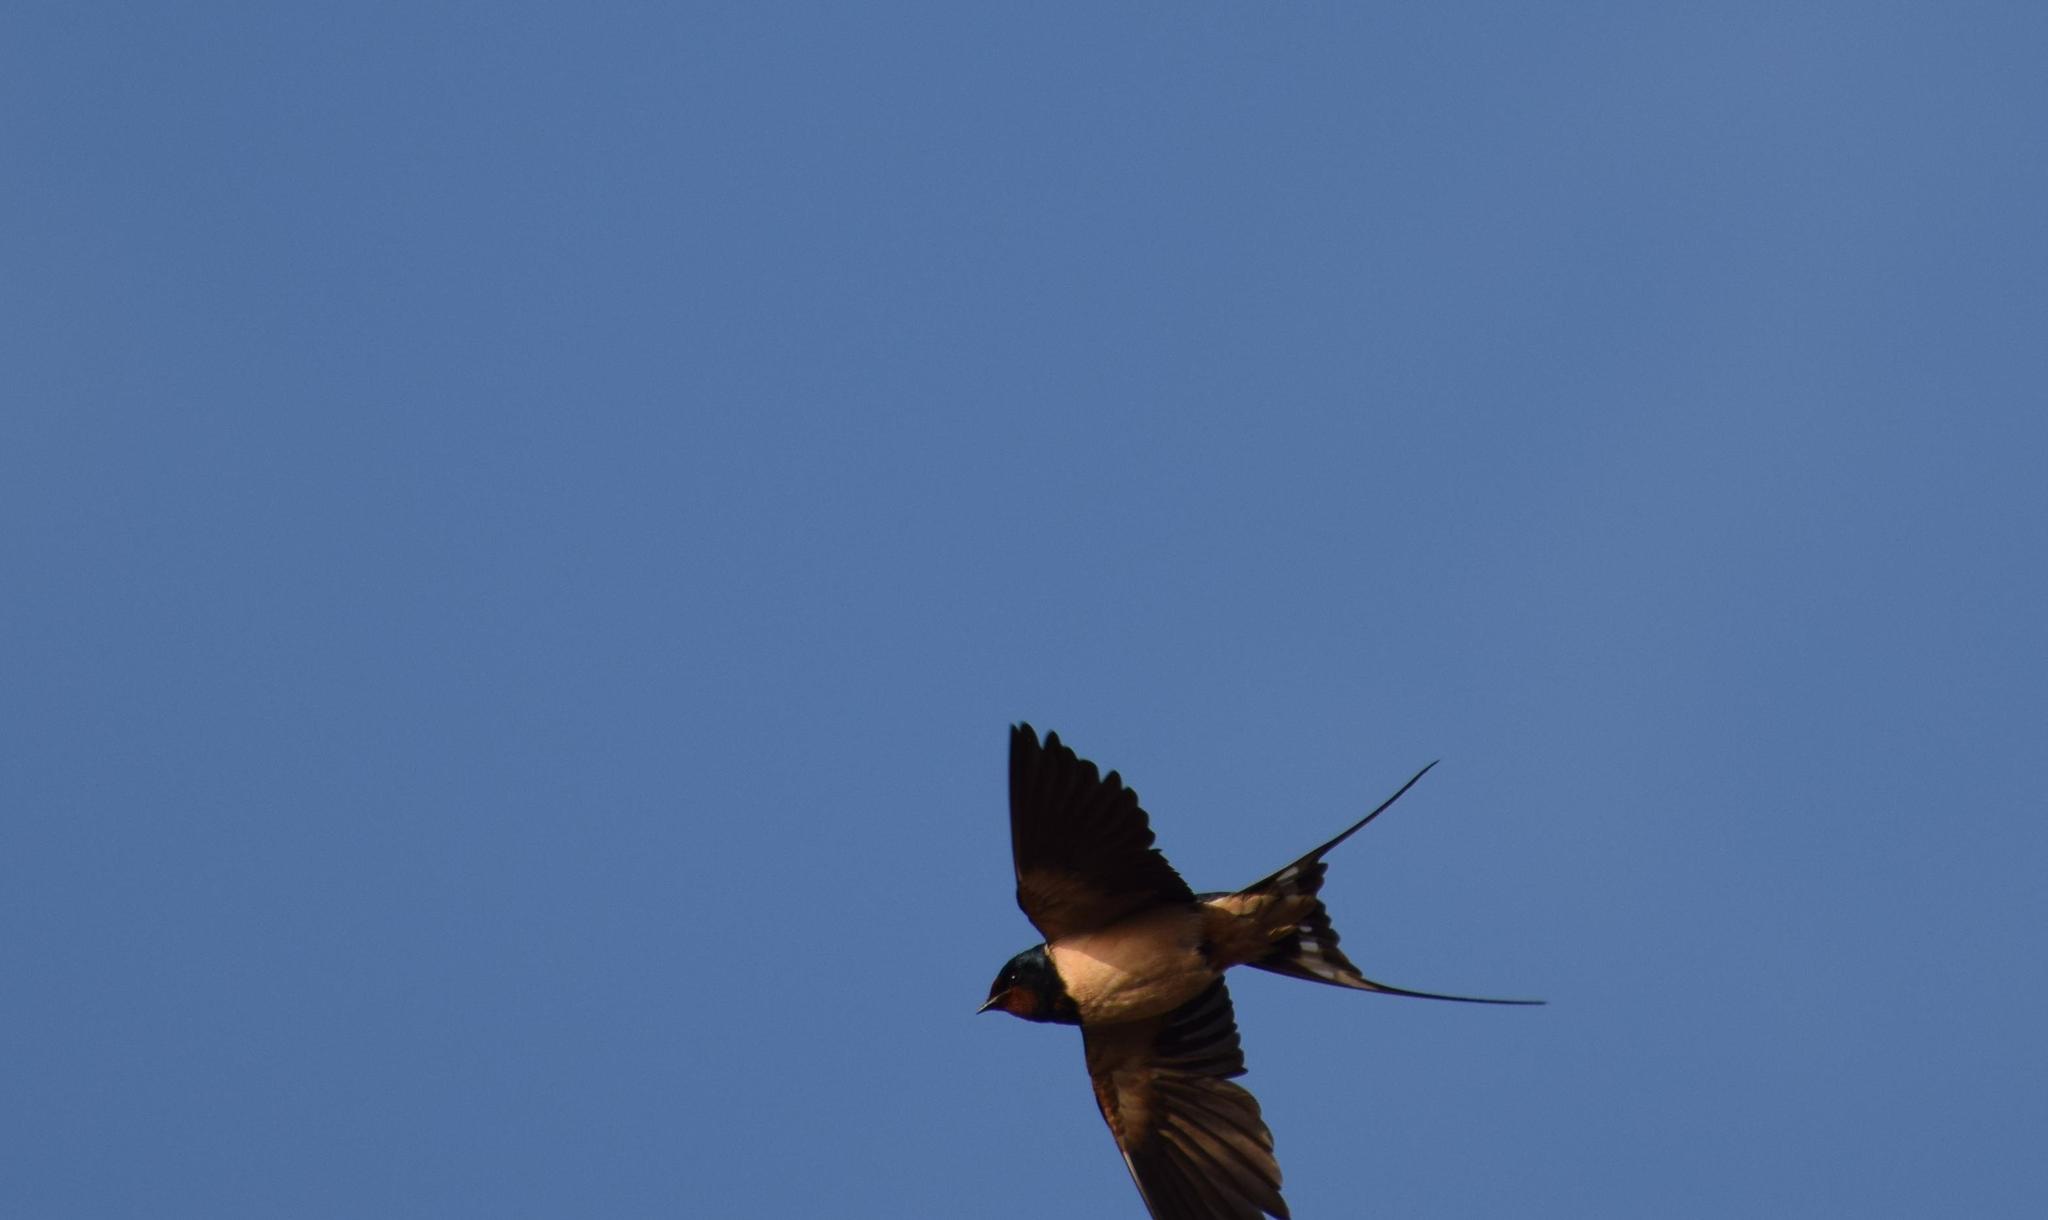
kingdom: Animalia
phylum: Chordata
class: Aves
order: Passeriformes
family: Hirundinidae
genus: Hirundo
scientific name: Hirundo rustica
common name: Barn swallow
